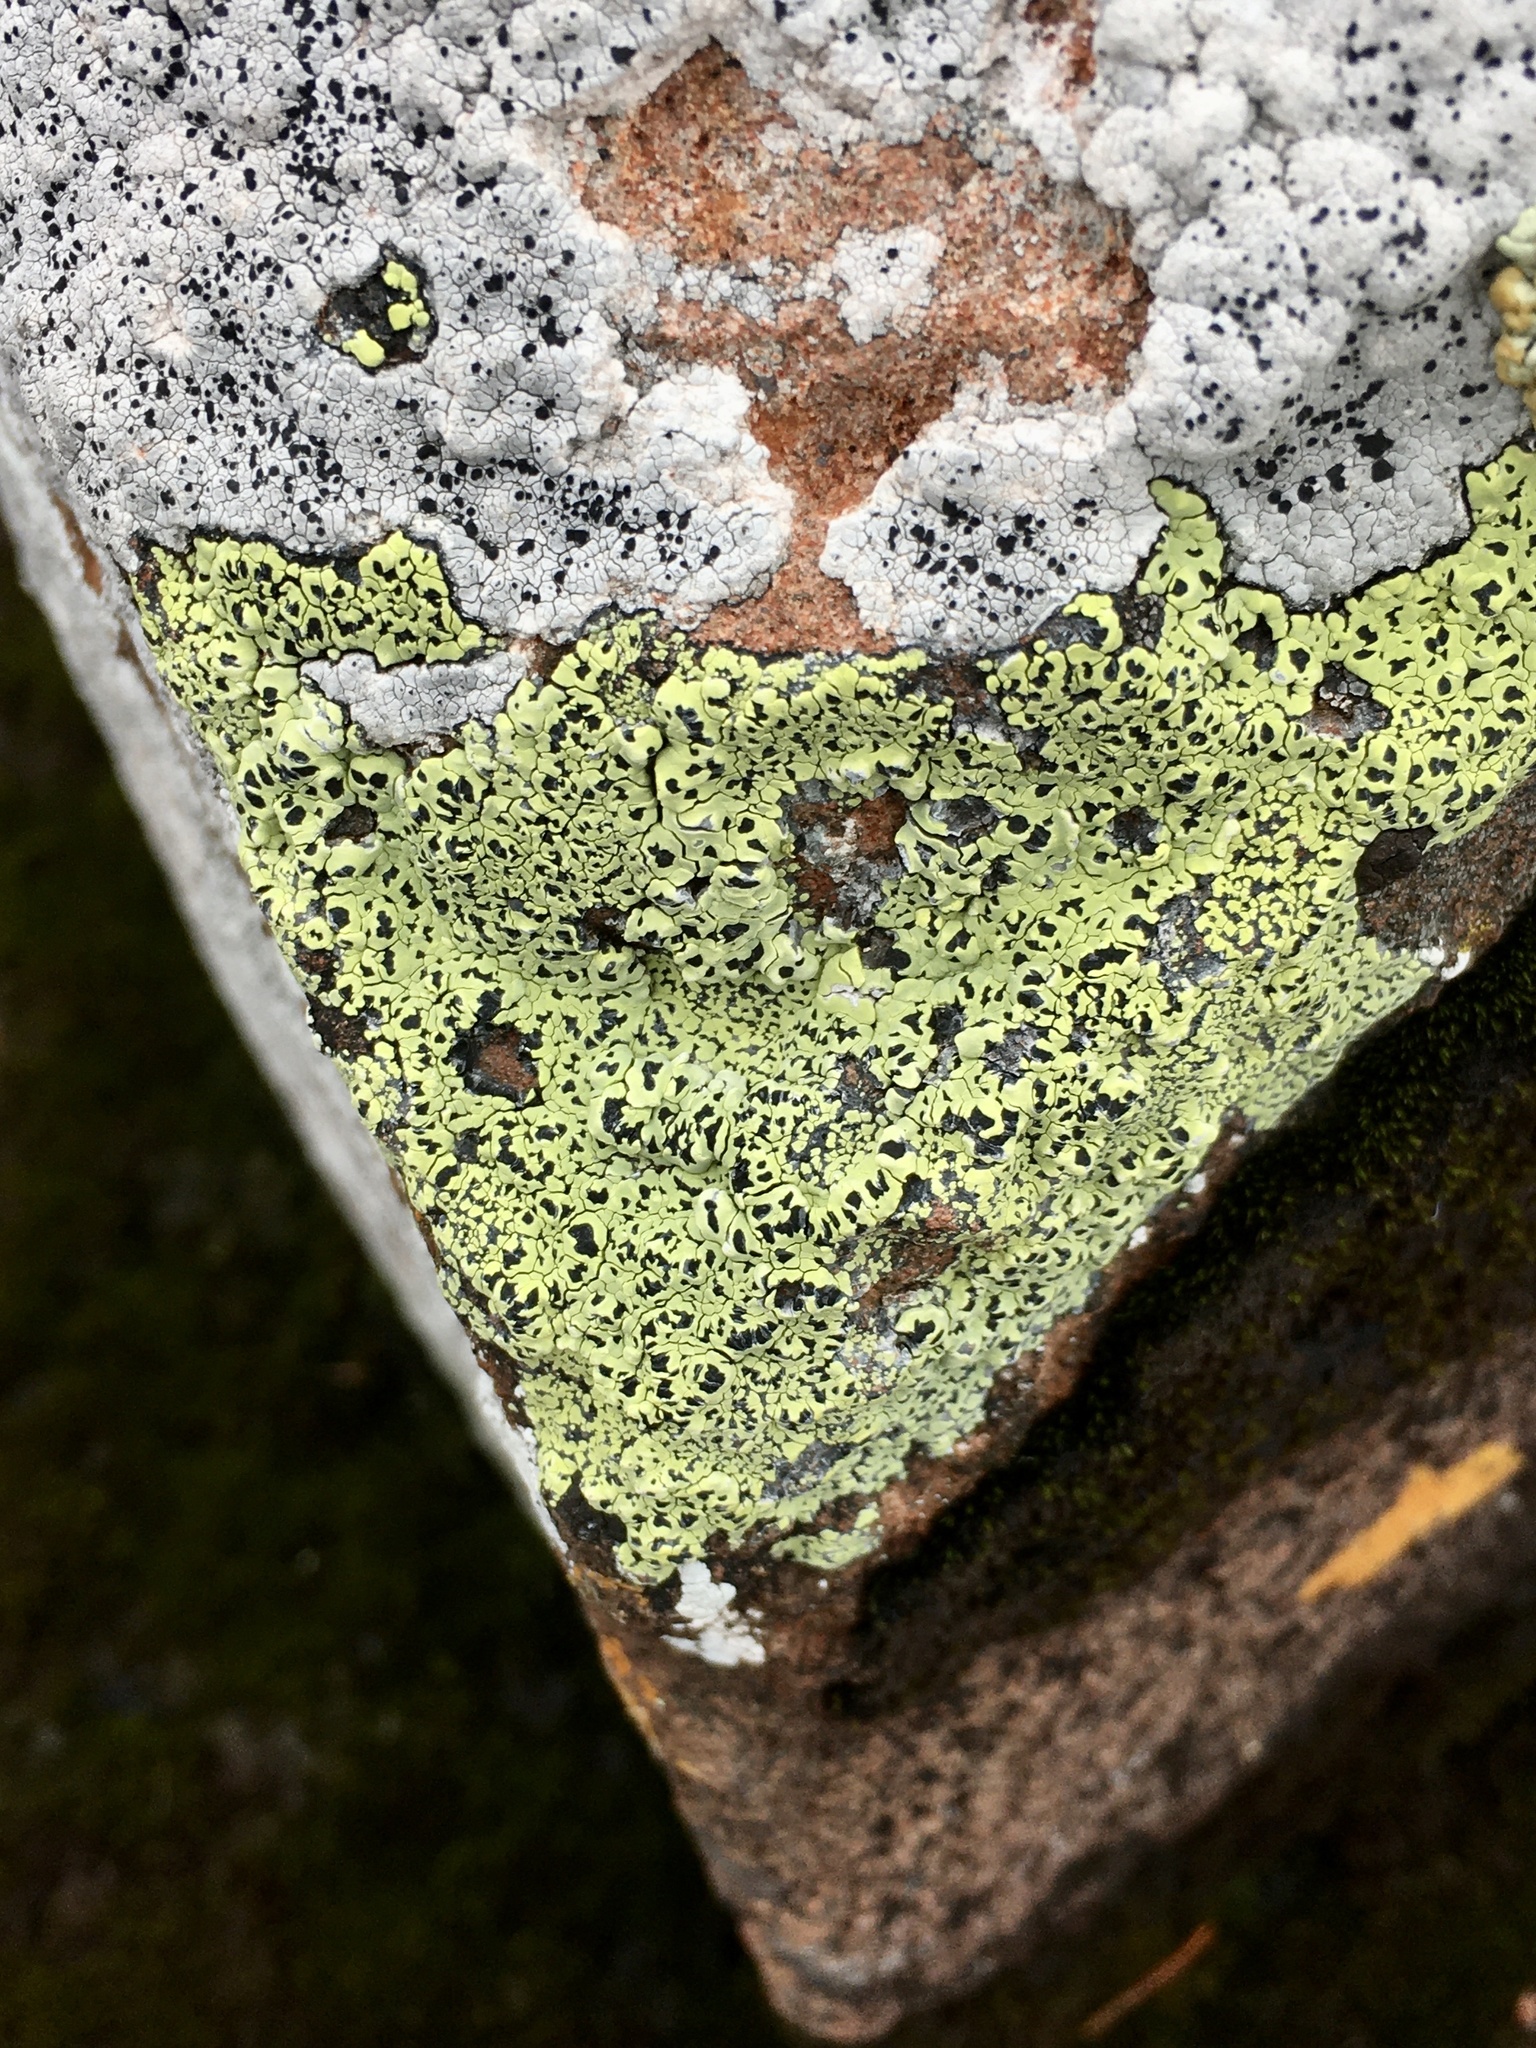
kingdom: Fungi
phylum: Ascomycota
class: Lecanoromycetes
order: Rhizocarpales
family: Rhizocarpaceae
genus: Rhizocarpon
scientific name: Rhizocarpon geographicum
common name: Yellow map lichen
